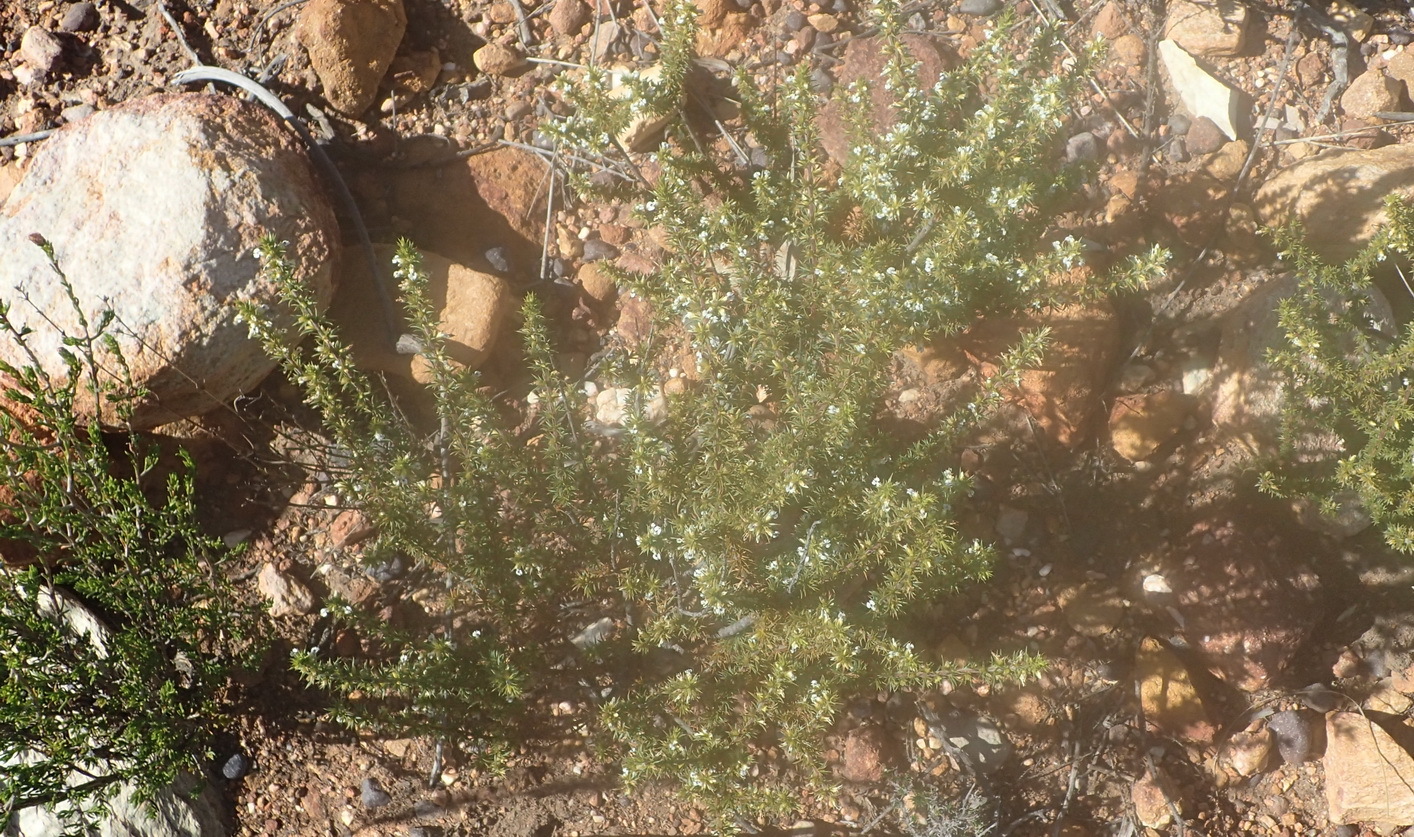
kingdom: Plantae
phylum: Tracheophyta
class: Magnoliopsida
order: Fabales
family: Polygalaceae
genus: Muraltia
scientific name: Muraltia ericifolia
